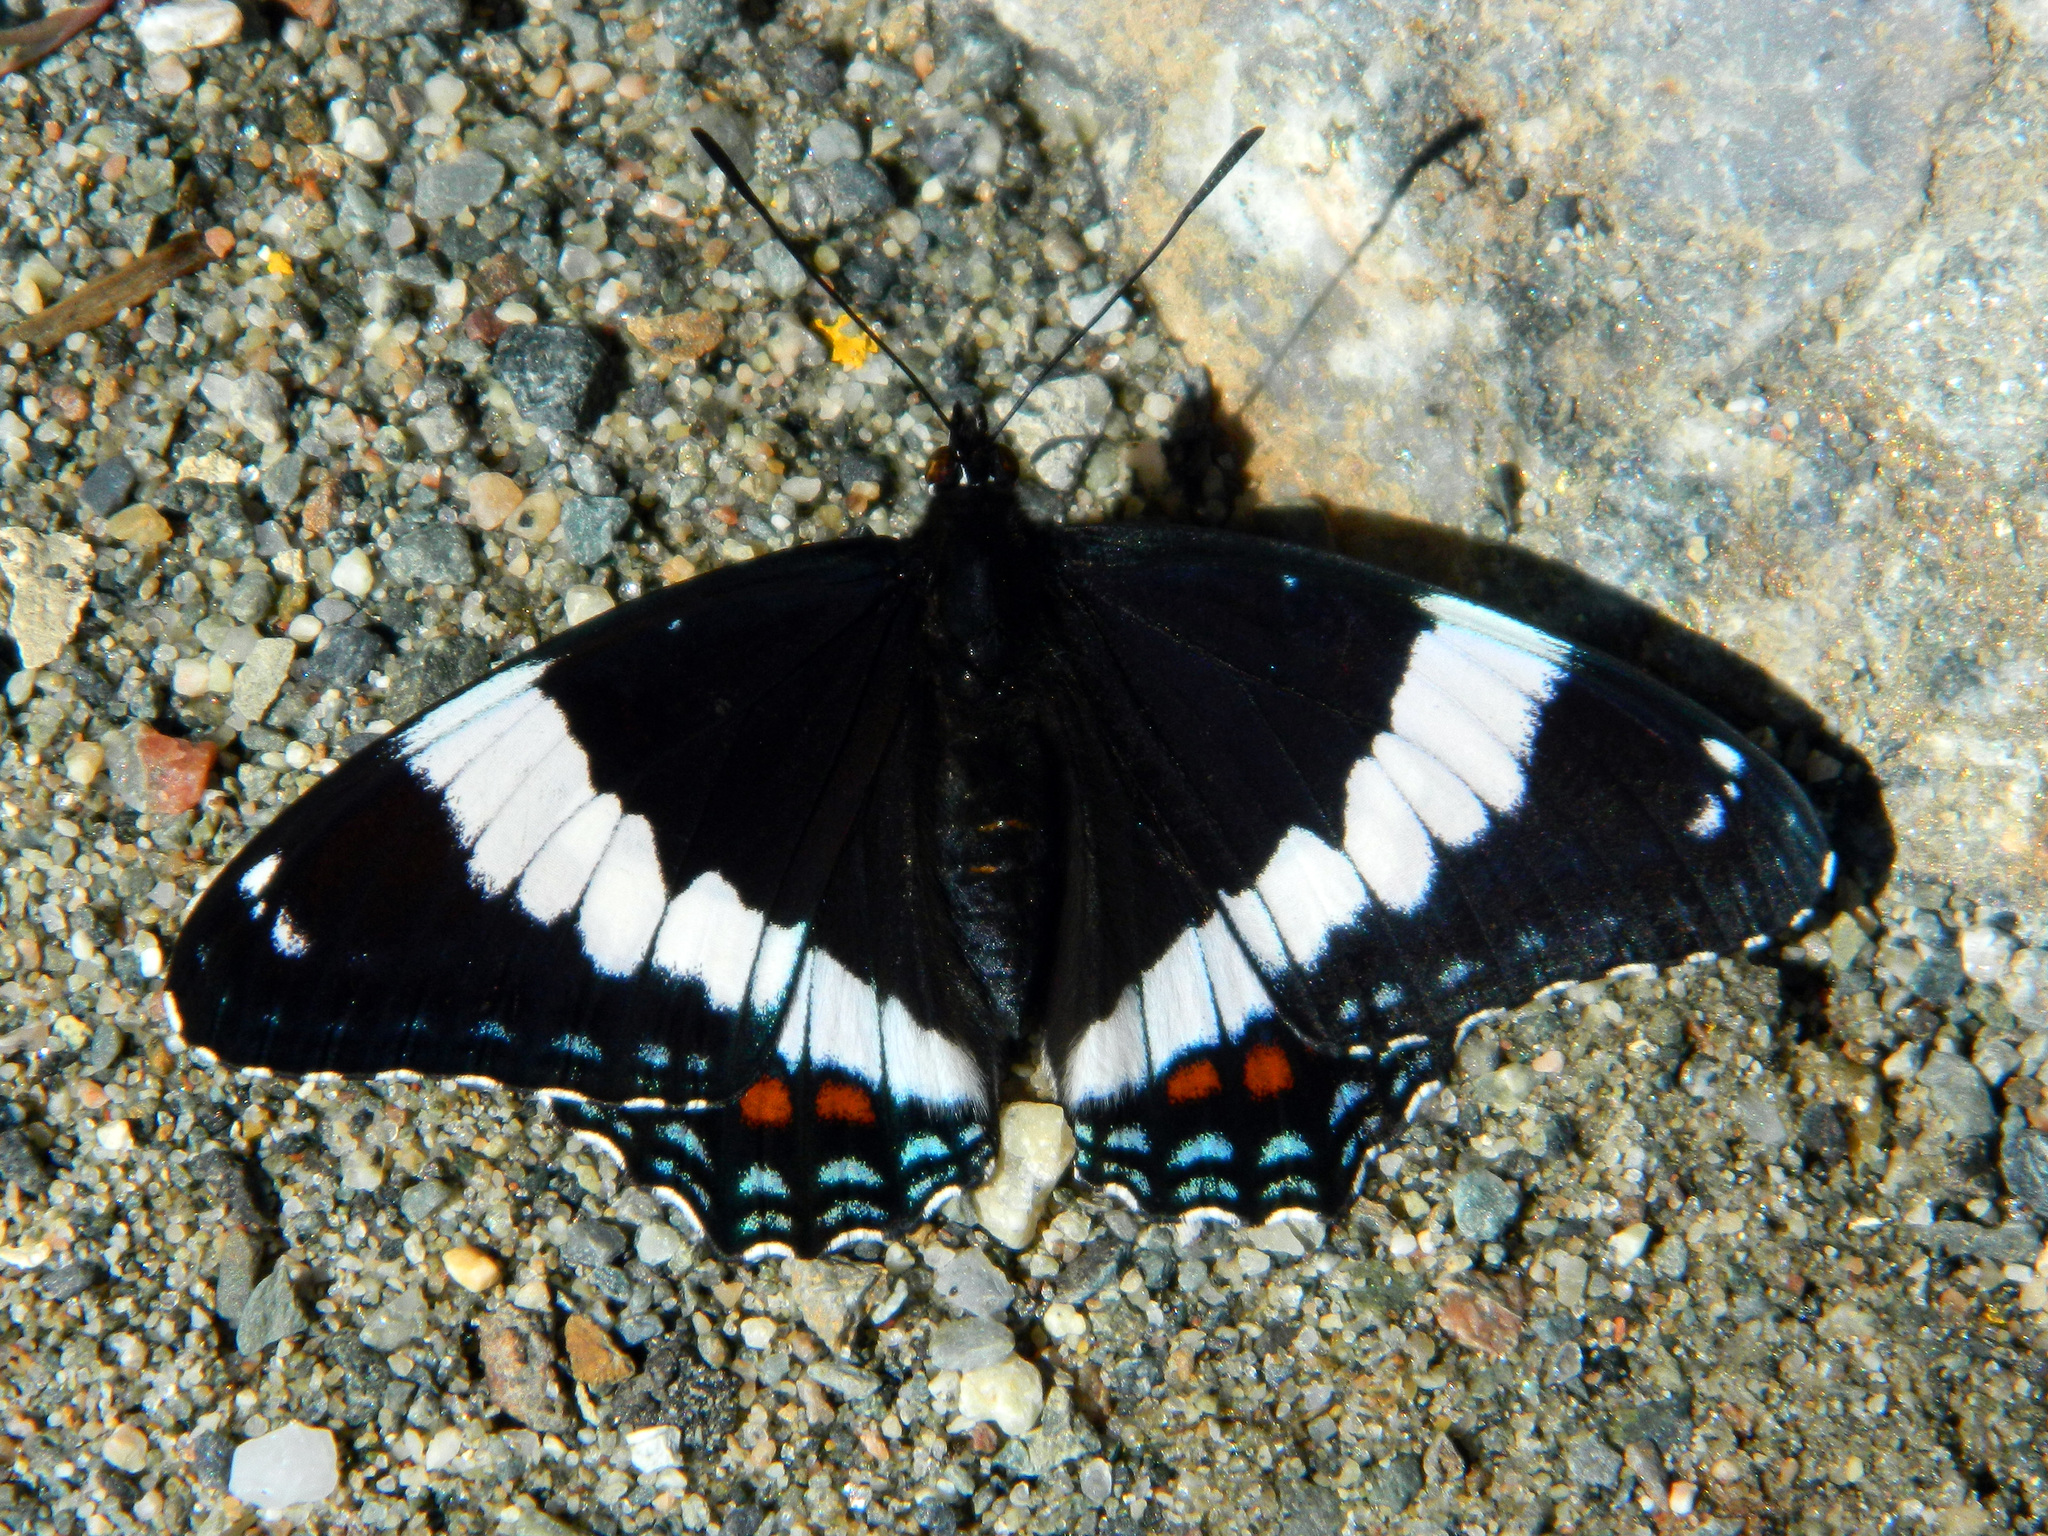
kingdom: Animalia
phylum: Arthropoda
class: Insecta
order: Lepidoptera
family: Nymphalidae
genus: Limenitis
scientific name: Limenitis arthemis
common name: Red-spotted admiral
